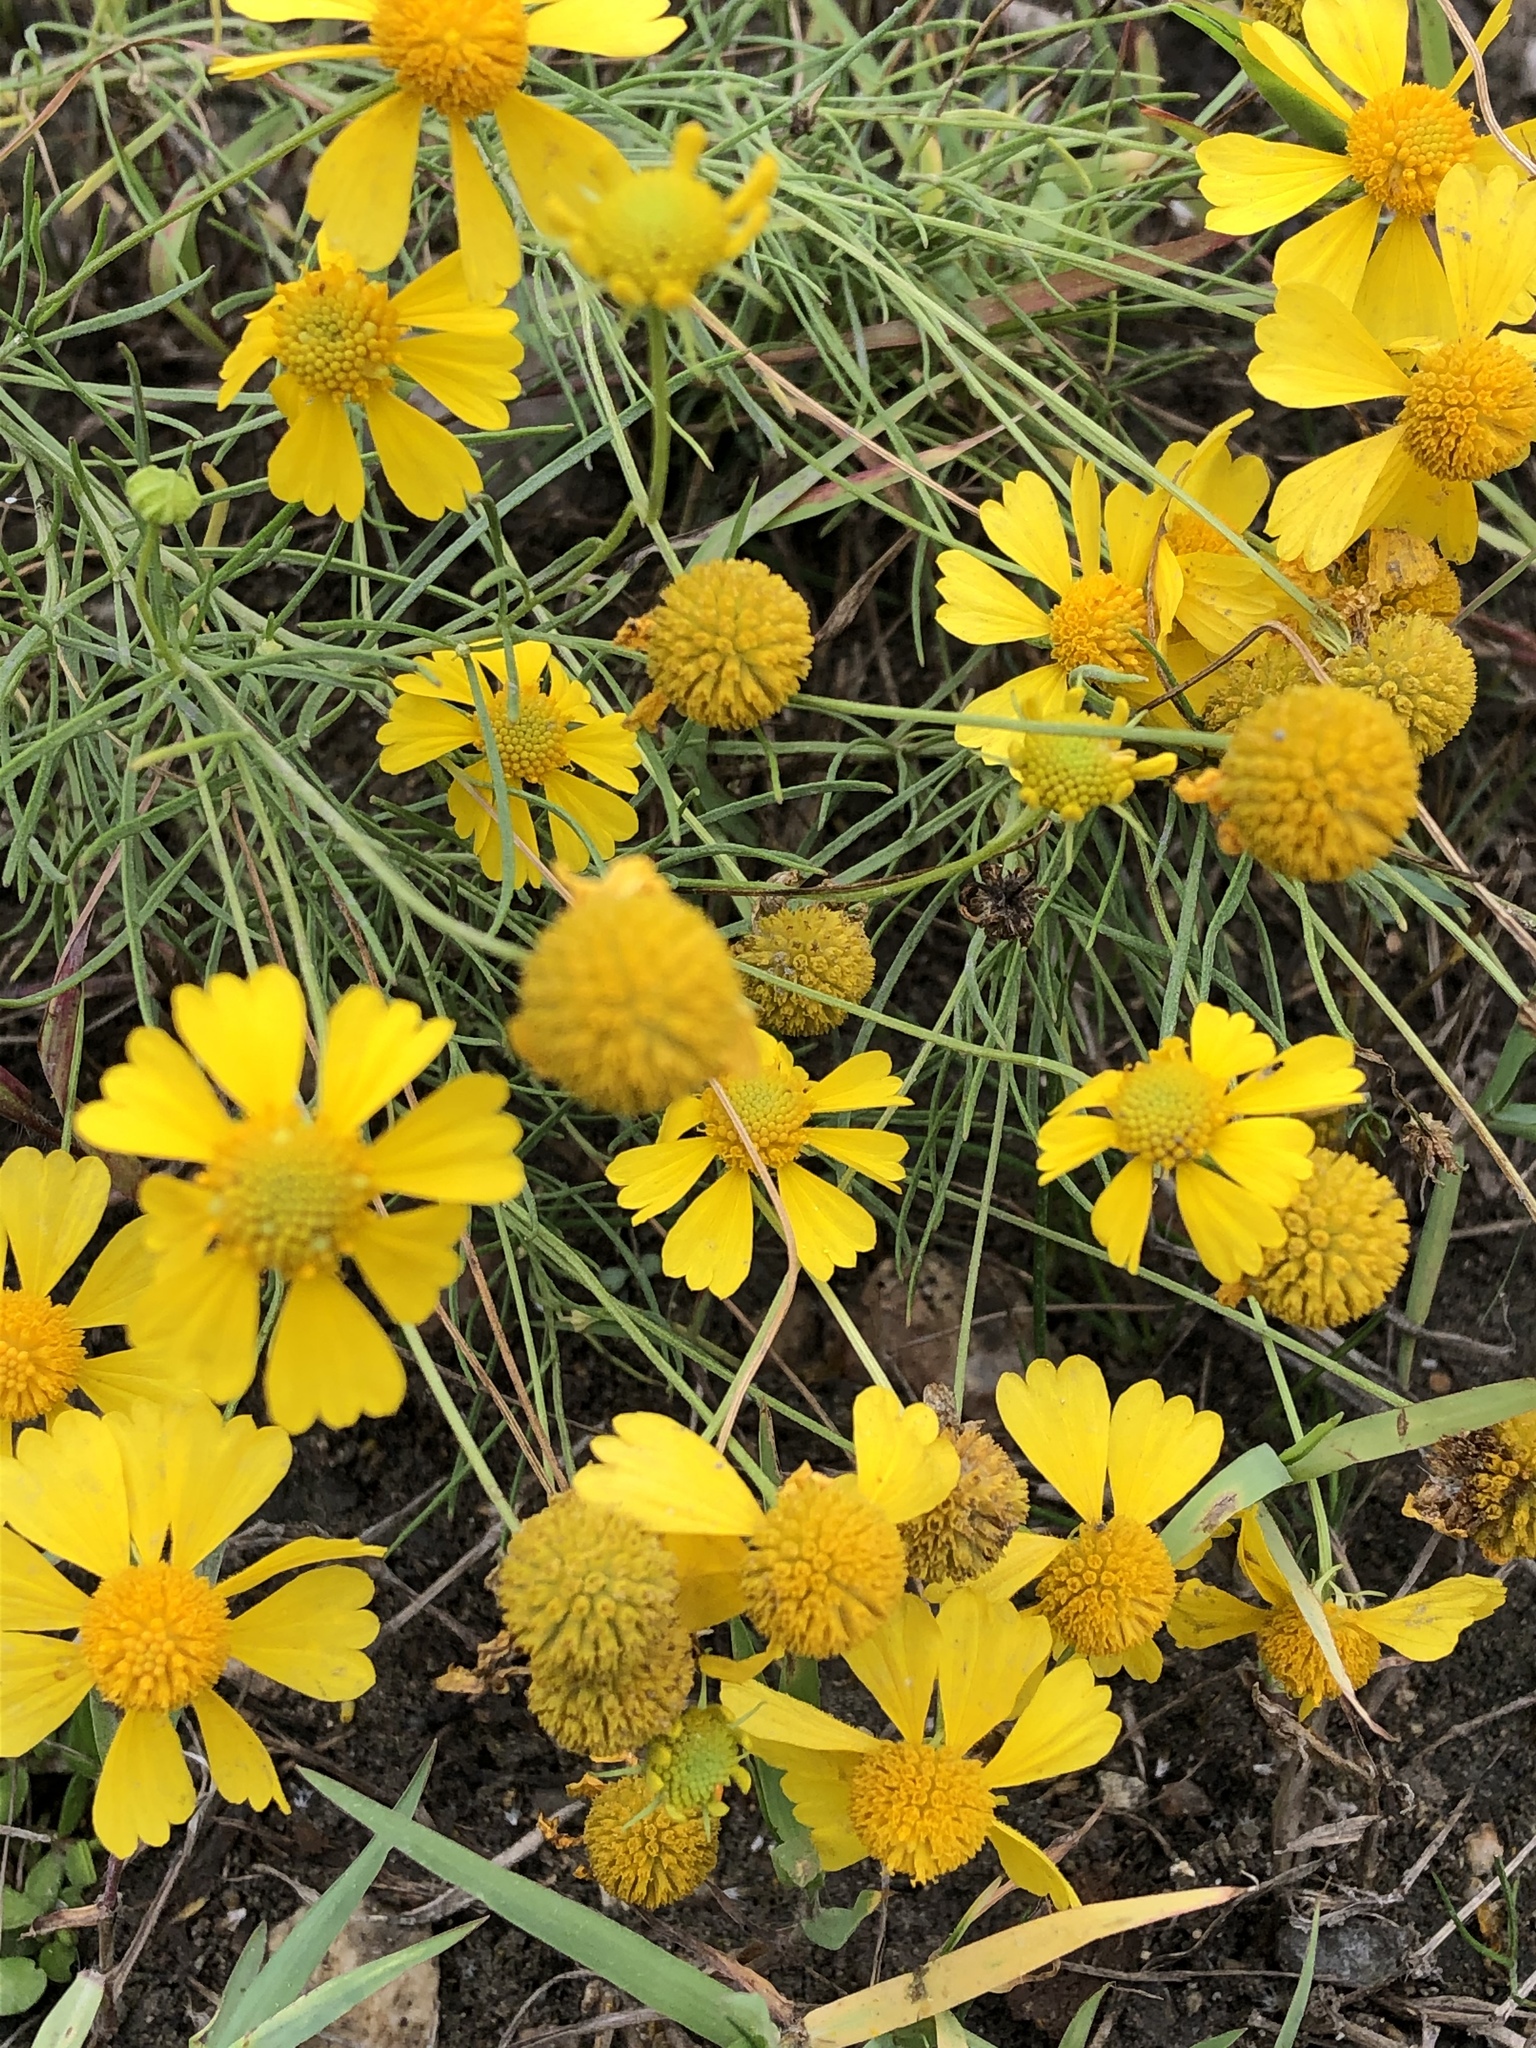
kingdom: Plantae
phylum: Tracheophyta
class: Magnoliopsida
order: Asterales
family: Asteraceae
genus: Helenium
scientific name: Helenium amarum
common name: Bitter sneezeweed
